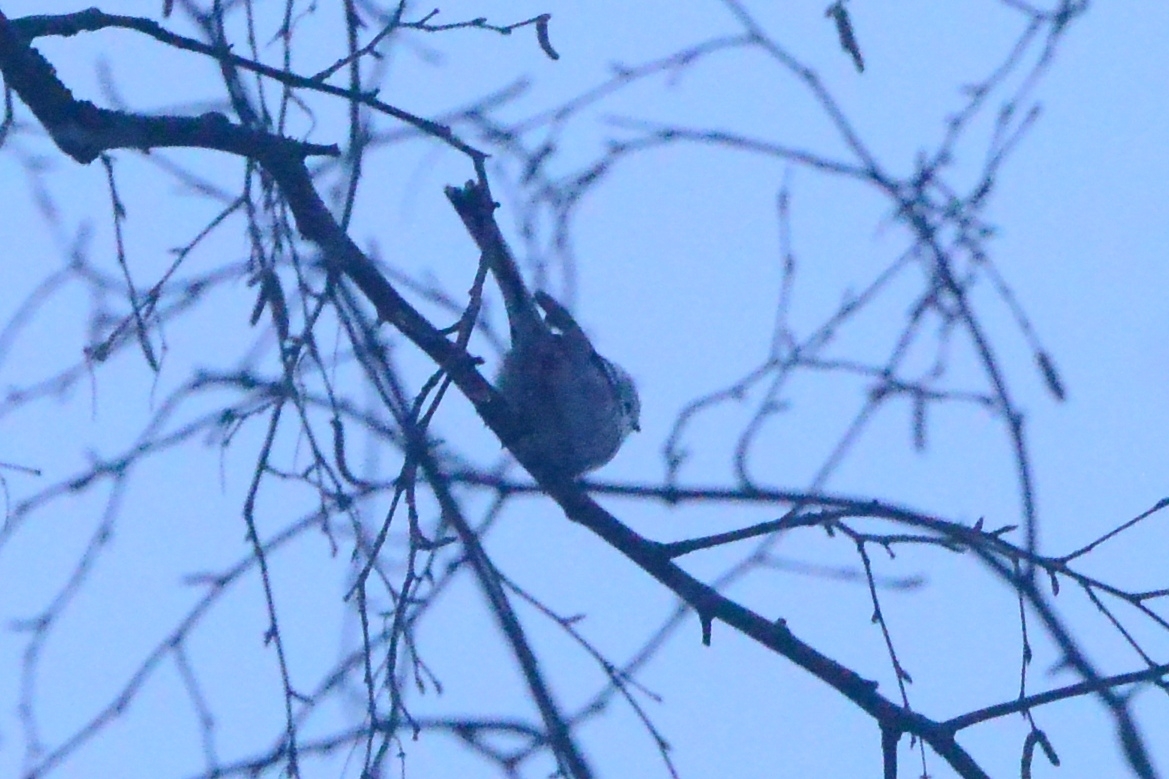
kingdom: Animalia
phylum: Chordata
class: Aves
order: Passeriformes
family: Aegithalidae
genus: Aegithalos
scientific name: Aegithalos caudatus
